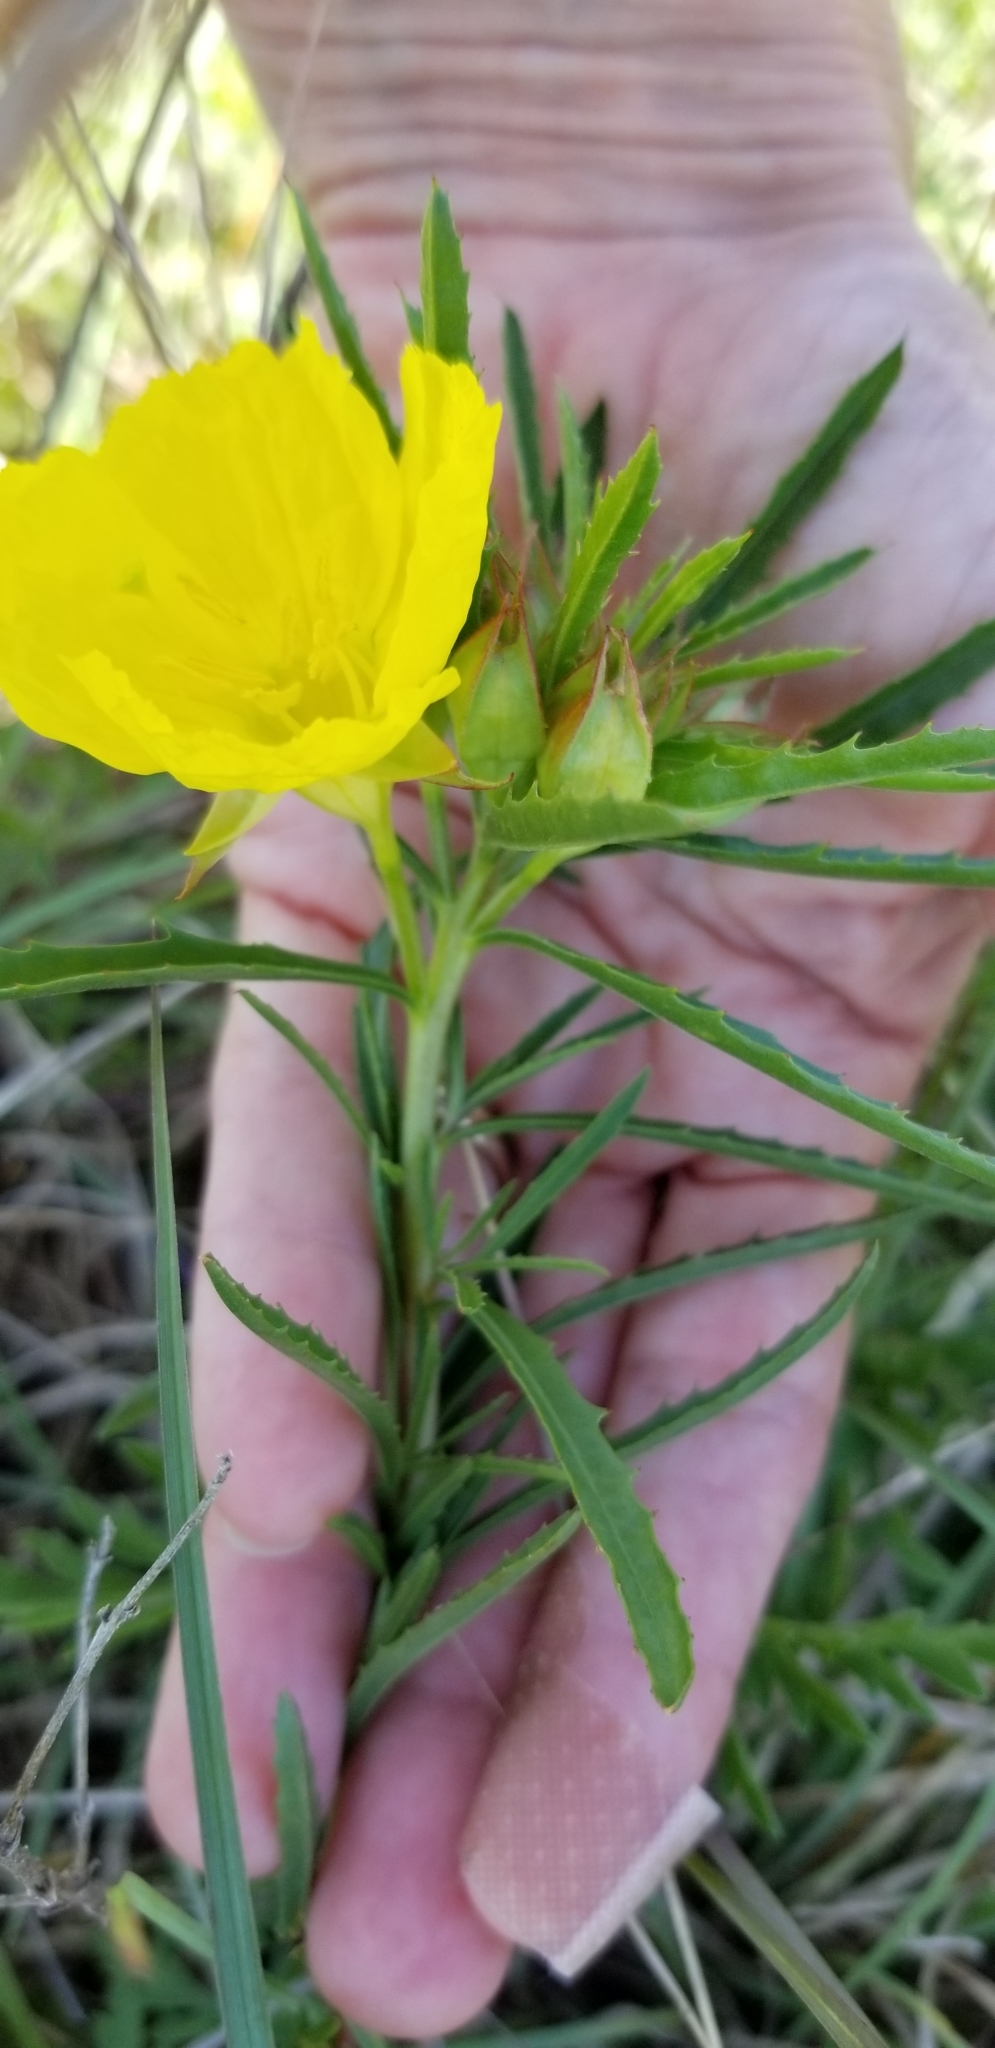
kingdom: Plantae
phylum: Tracheophyta
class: Magnoliopsida
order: Myrtales
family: Onagraceae
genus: Oenothera
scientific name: Oenothera
